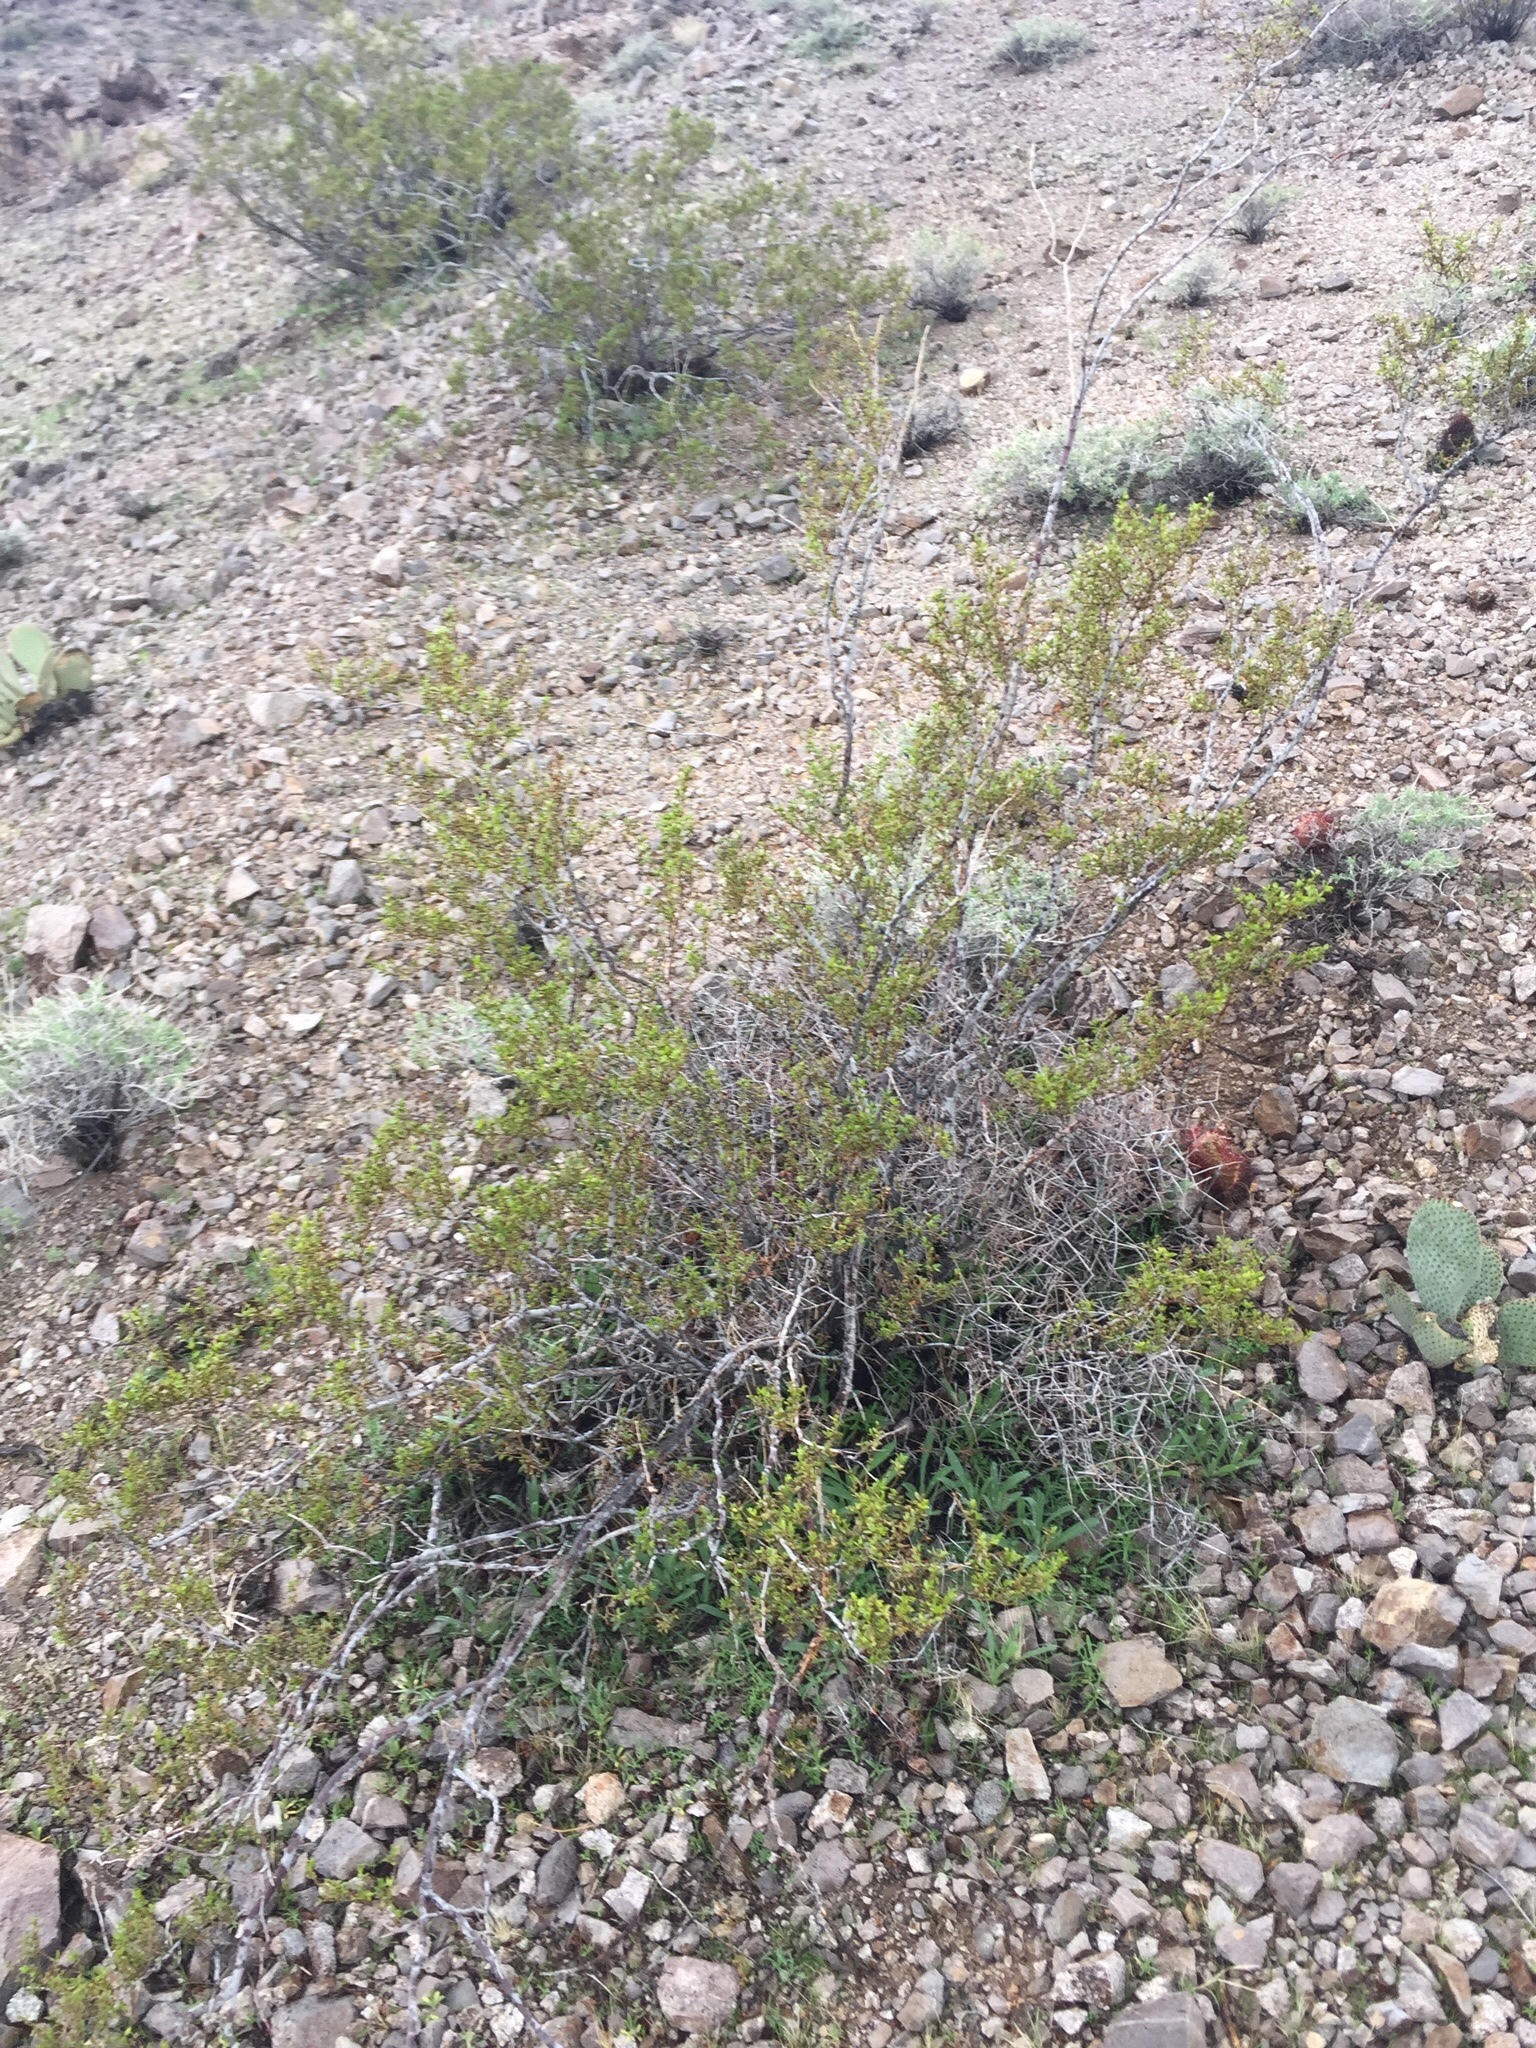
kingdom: Plantae
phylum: Tracheophyta
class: Magnoliopsida
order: Zygophyllales
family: Zygophyllaceae
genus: Larrea
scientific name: Larrea tridentata
